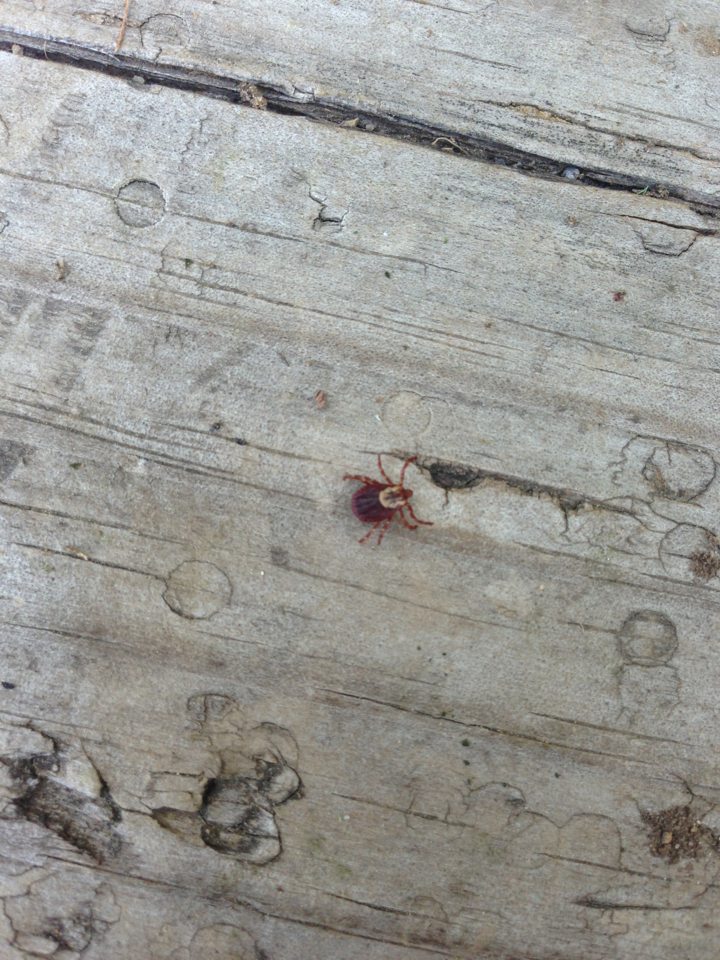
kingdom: Animalia
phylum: Arthropoda
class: Arachnida
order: Ixodida
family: Ixodidae
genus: Dermacentor
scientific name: Dermacentor variabilis
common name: American dog tick
